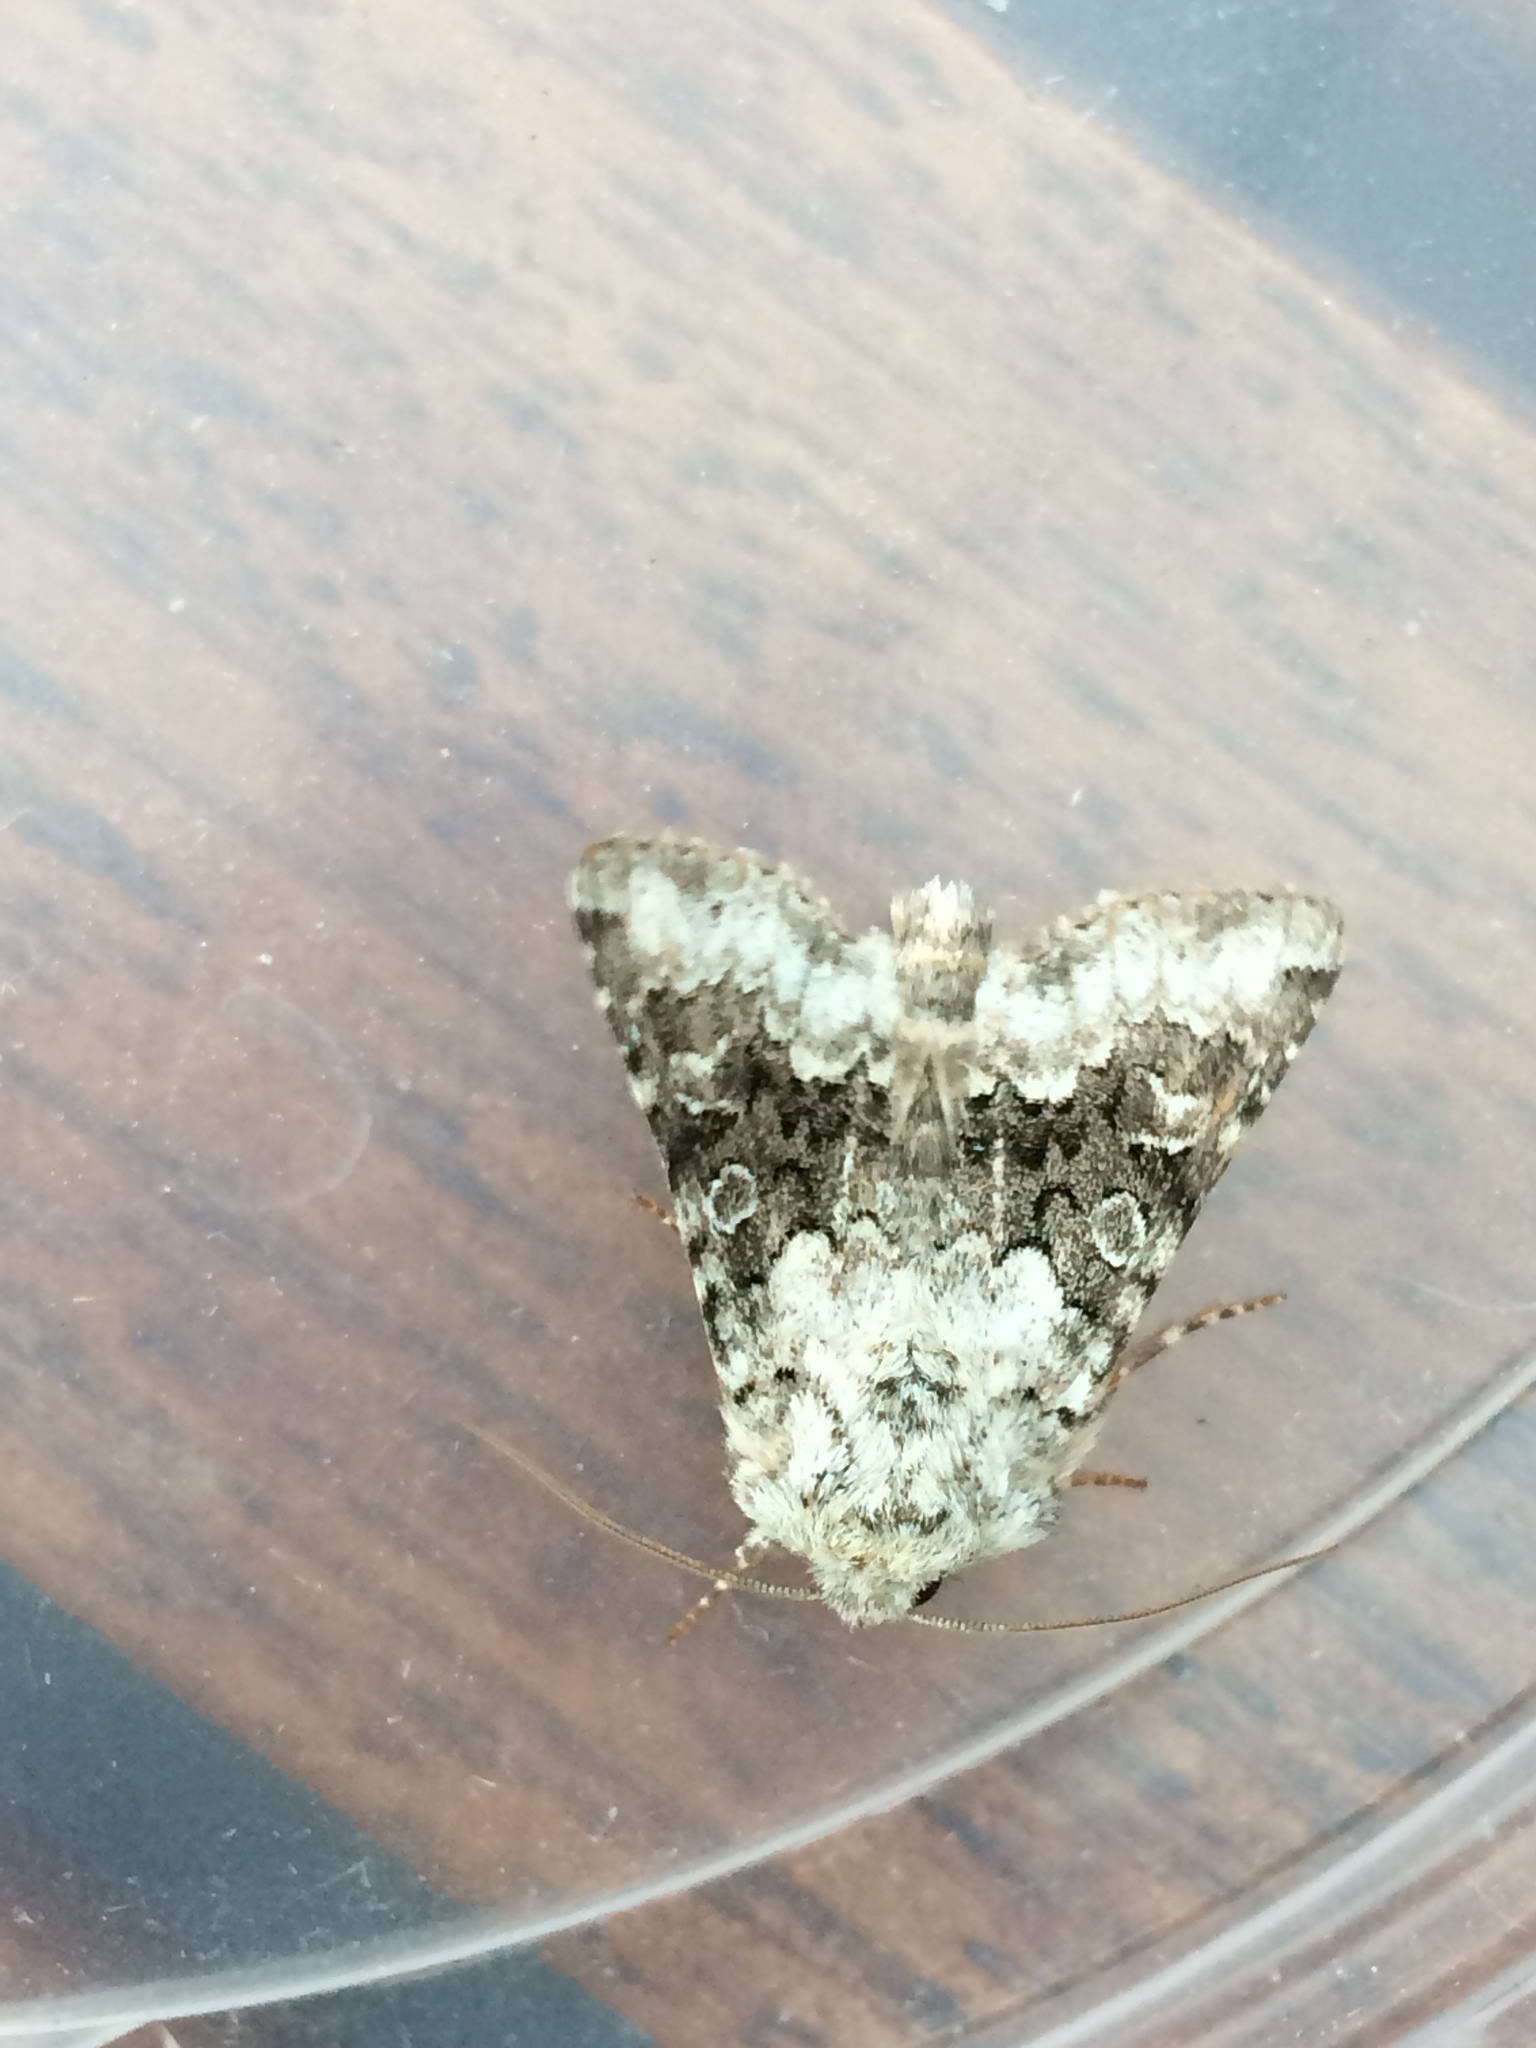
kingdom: Animalia
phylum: Arthropoda
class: Insecta
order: Lepidoptera
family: Noctuidae
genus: Hecatera
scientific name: Hecatera bicolorata
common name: Broad-barred white
